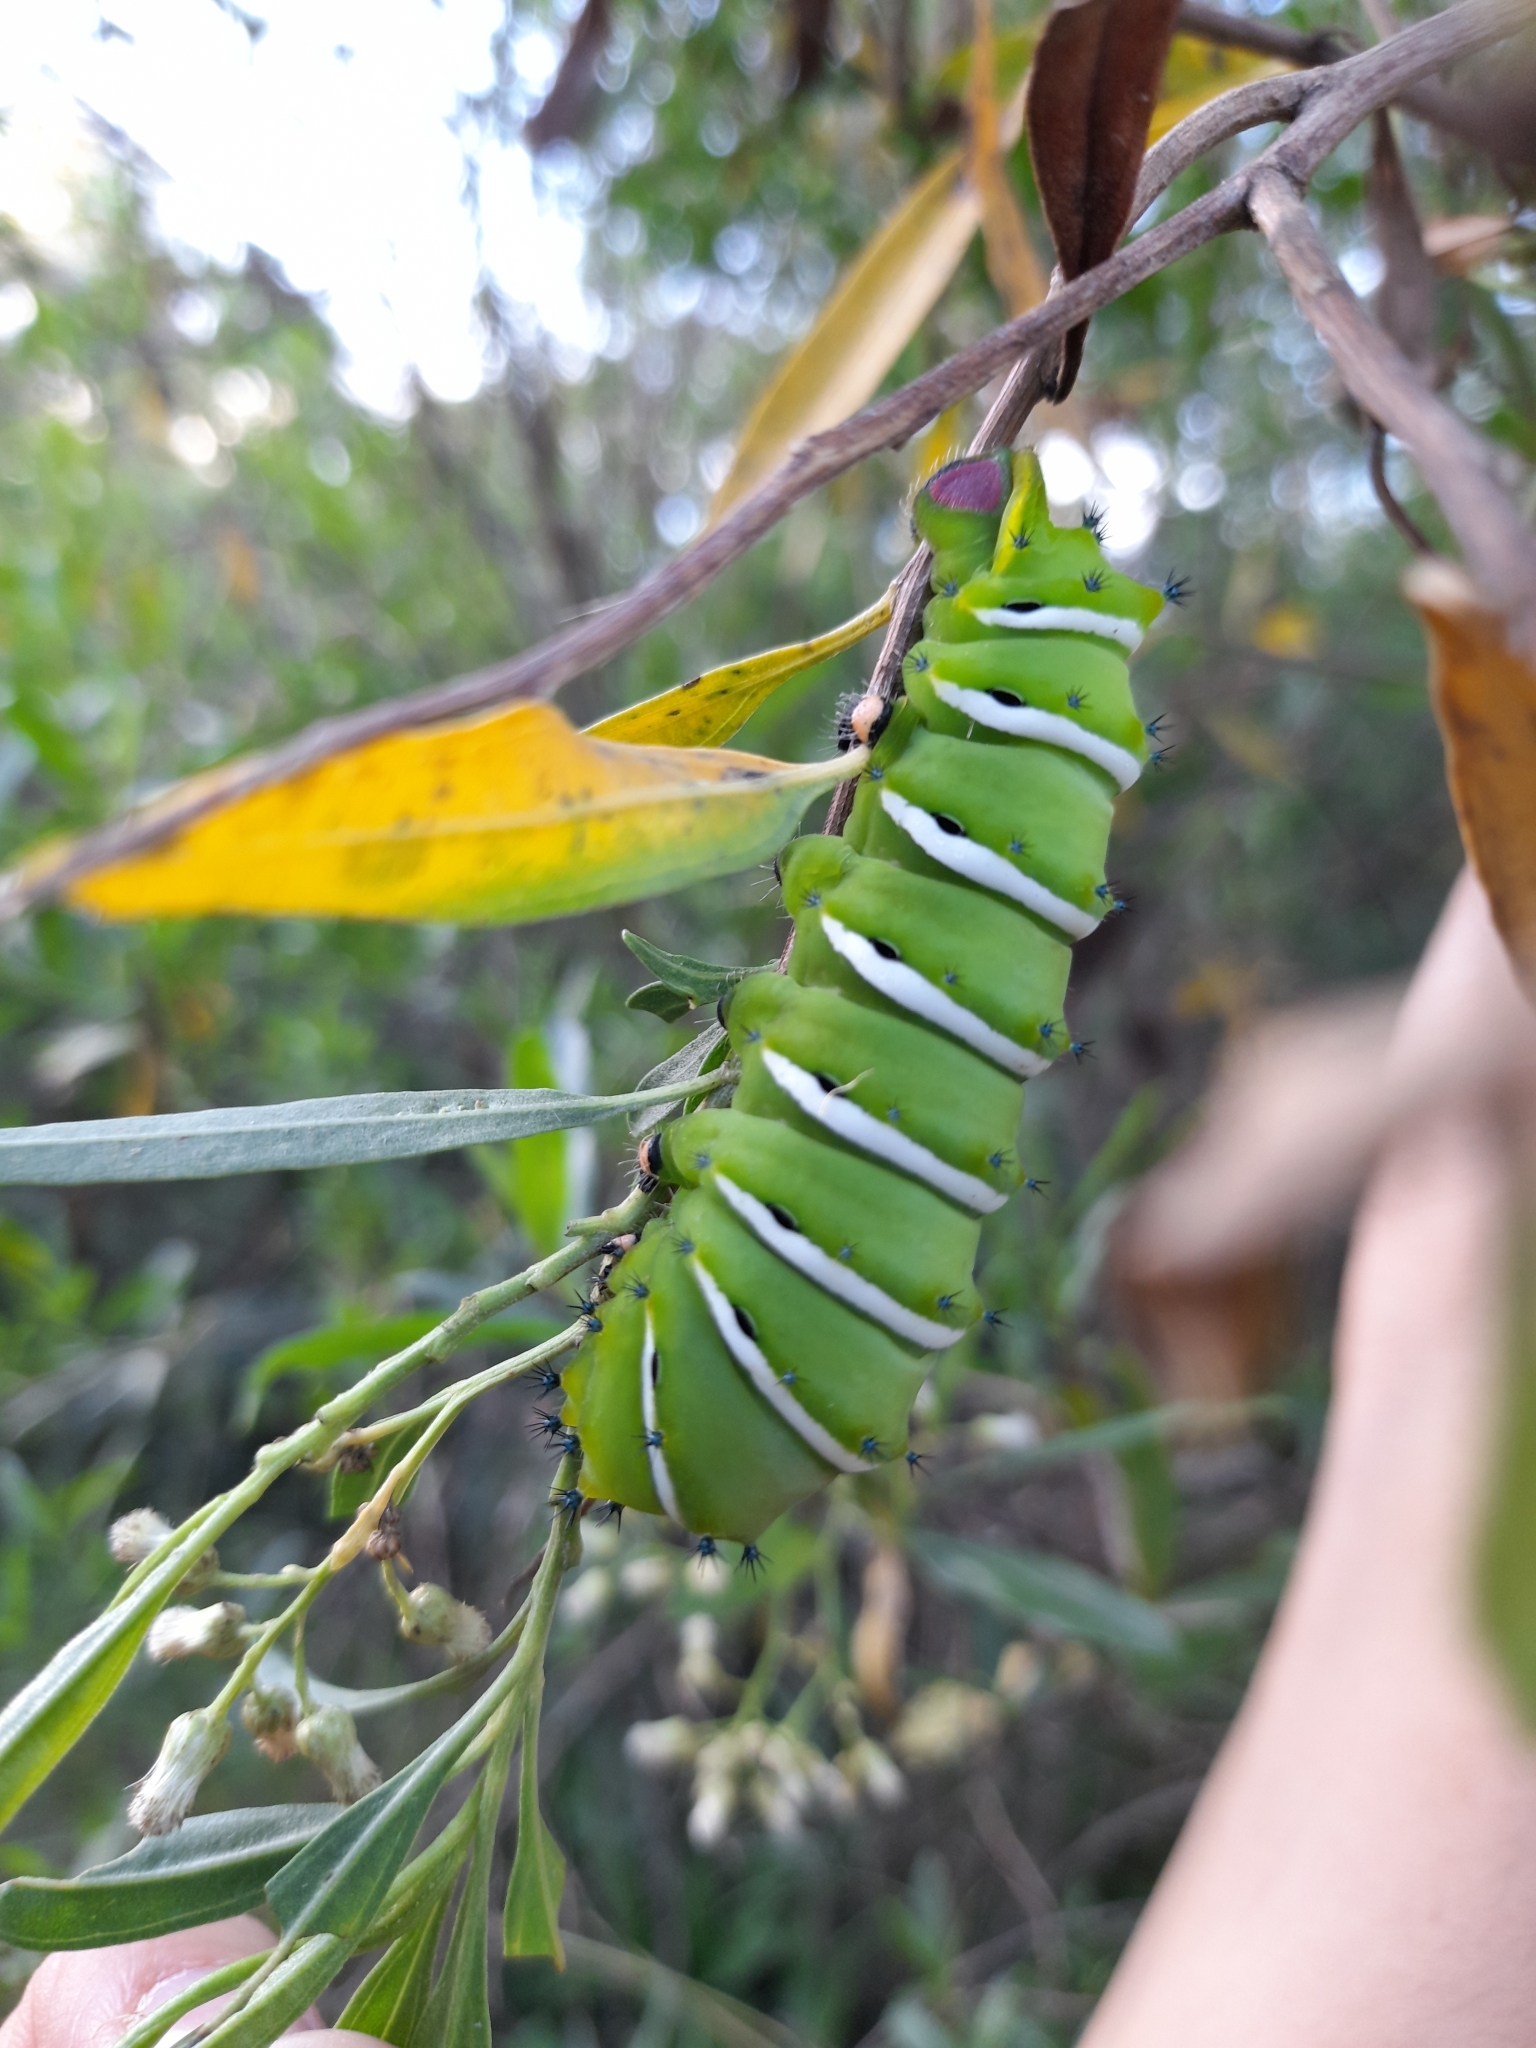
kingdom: Animalia
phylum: Arthropoda
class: Insecta
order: Lepidoptera
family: Saturniidae
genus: Rothschildia
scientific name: Rothschildia jacobaeae
